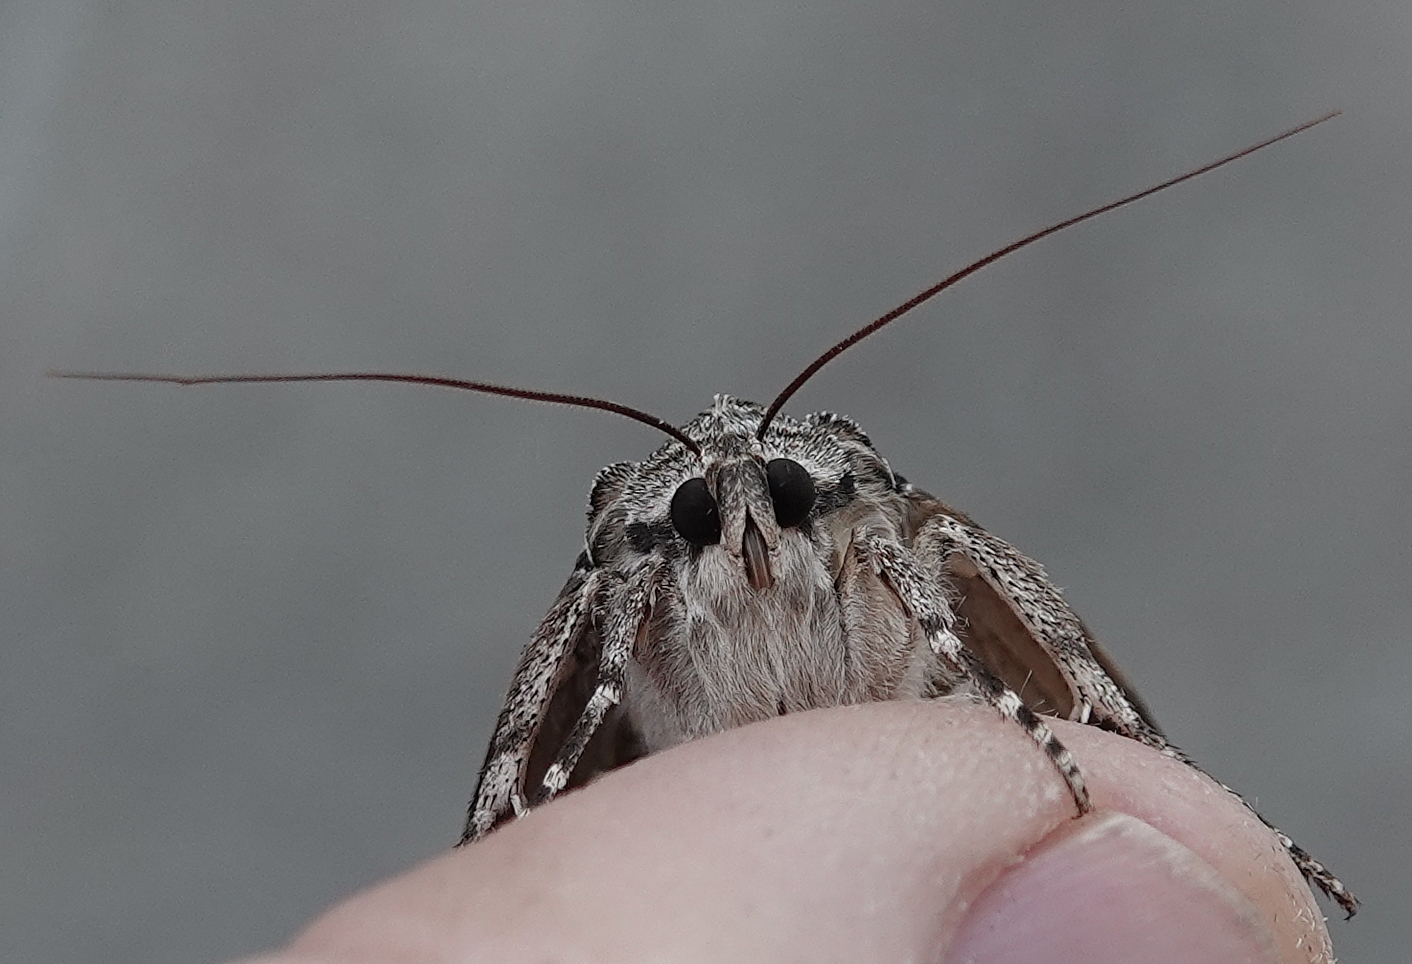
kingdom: Animalia
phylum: Arthropoda
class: Insecta
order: Lepidoptera
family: Erebidae
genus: Catocala
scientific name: Catocala neogama
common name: Bride underwing
